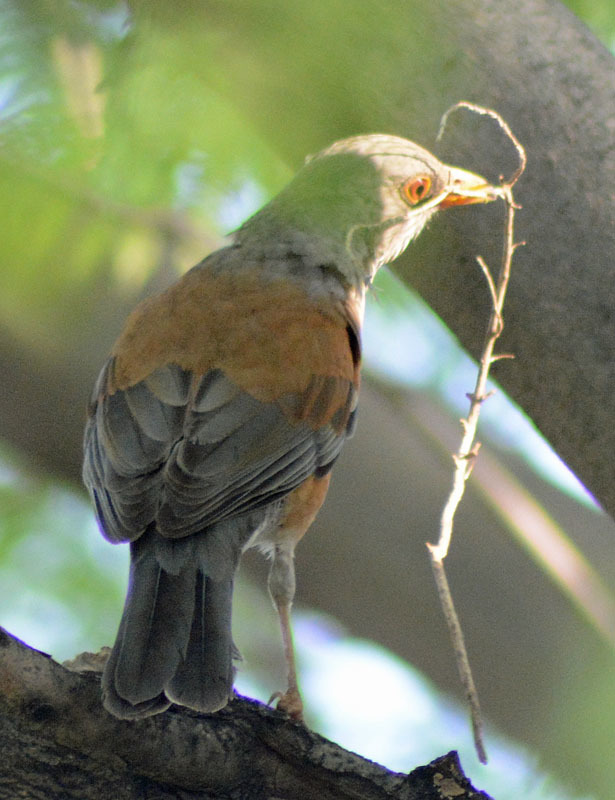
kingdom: Animalia
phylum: Chordata
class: Aves
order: Passeriformes
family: Turdidae
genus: Turdus
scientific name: Turdus rufopalliatus
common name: Rufous-backed robin
